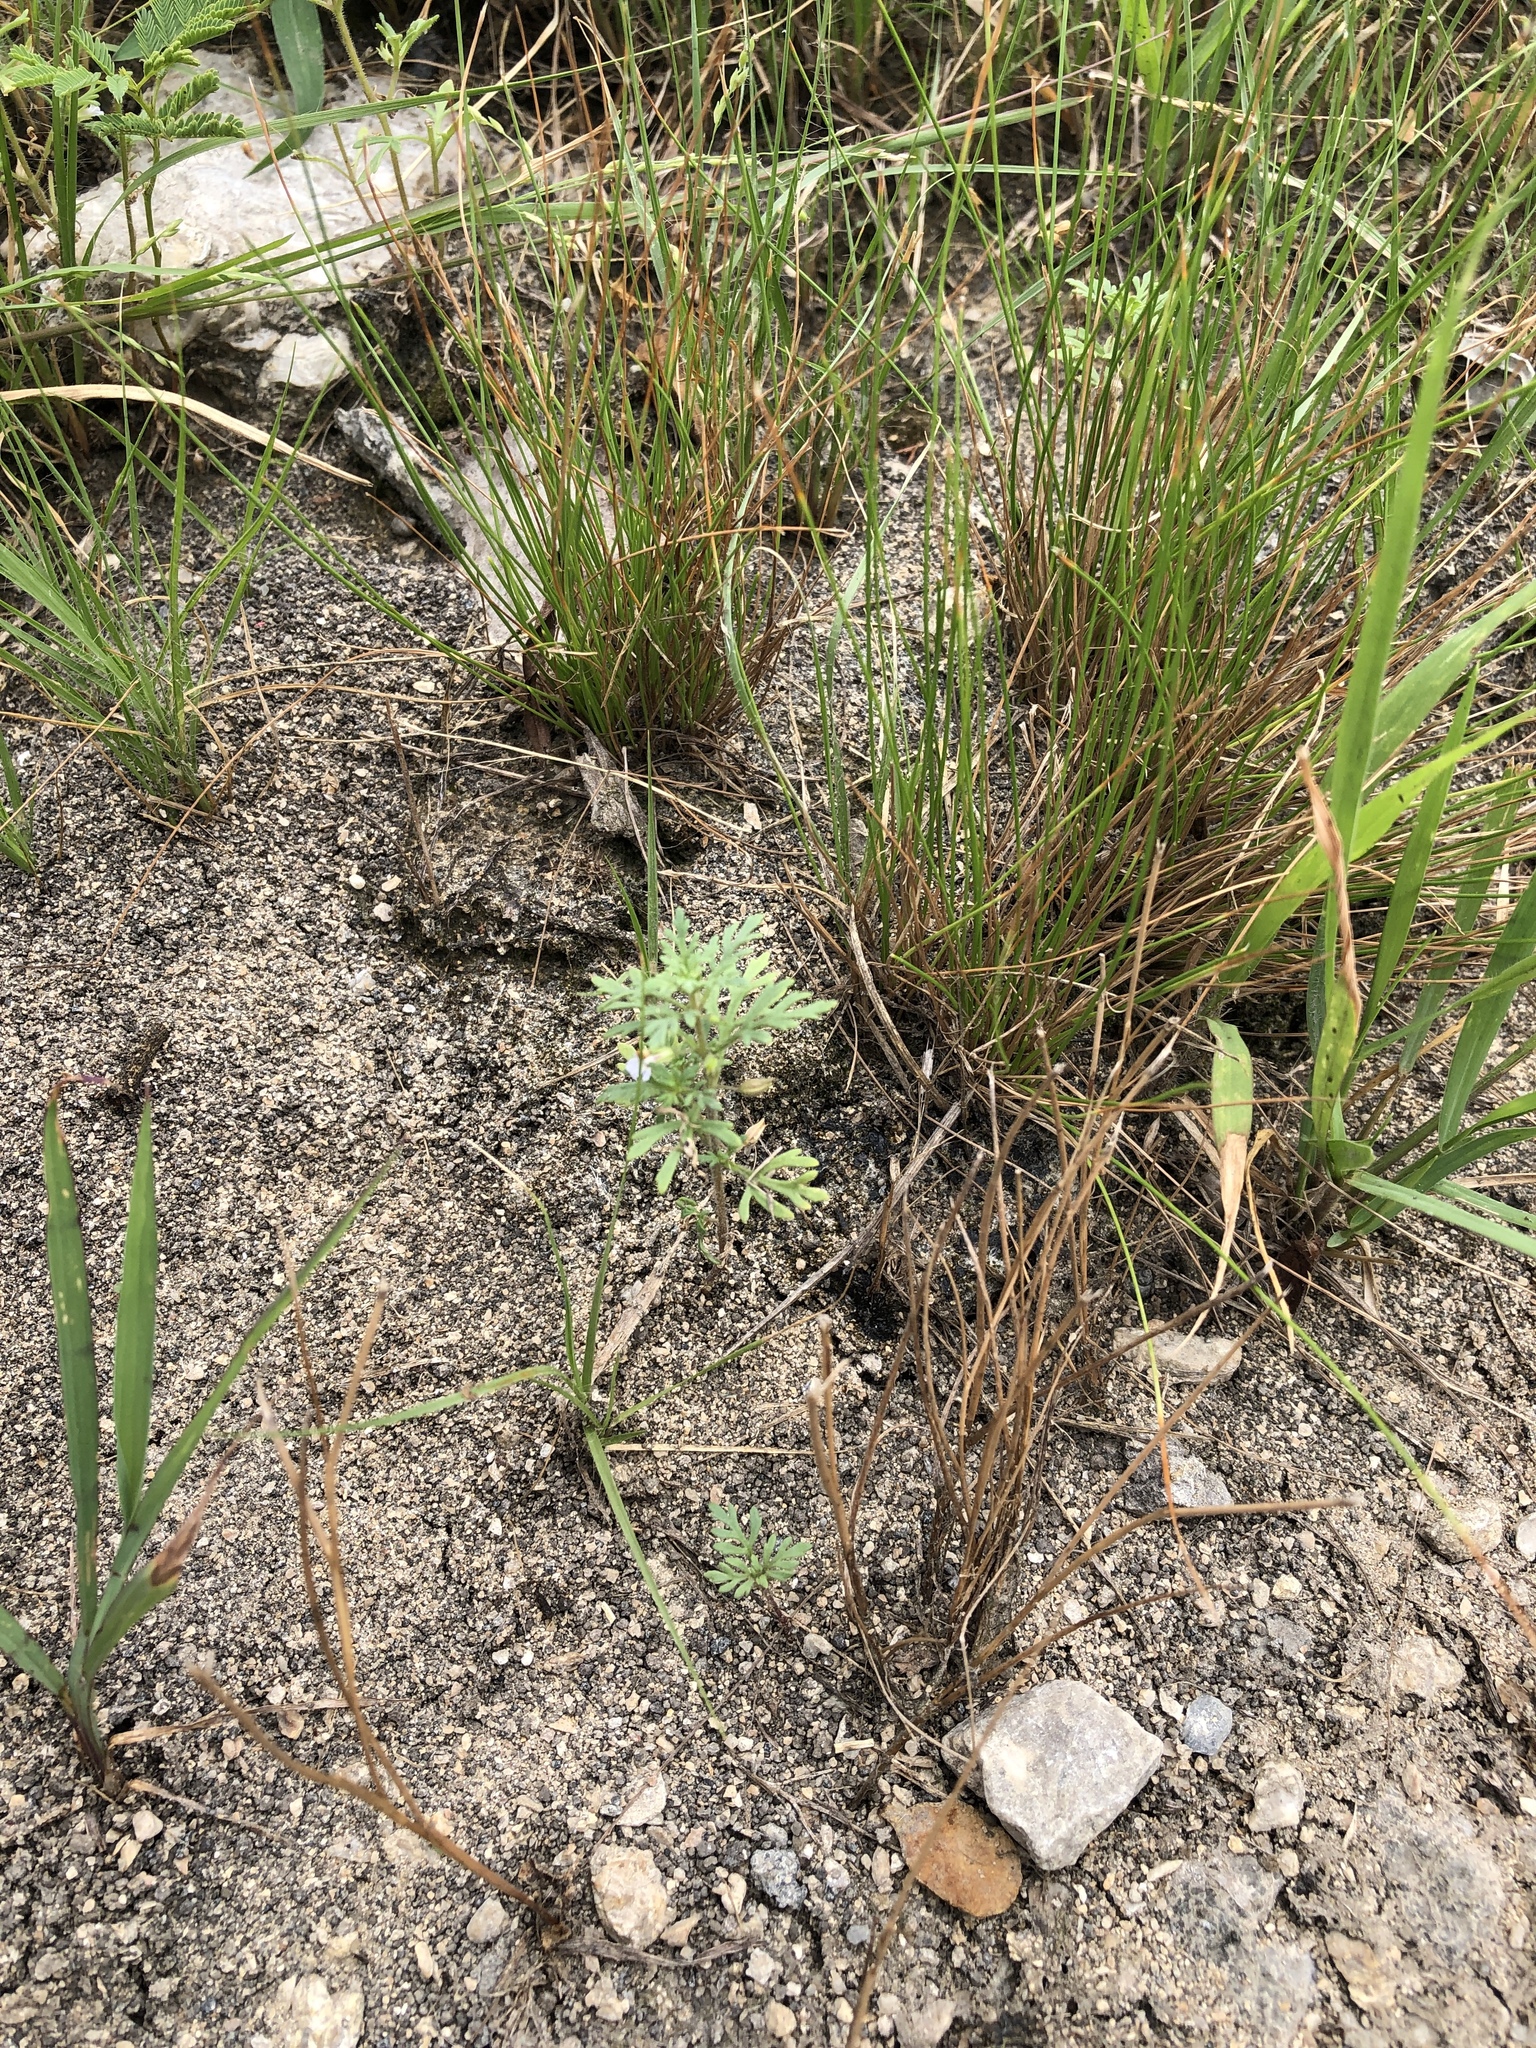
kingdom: Plantae
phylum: Tracheophyta
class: Magnoliopsida
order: Lamiales
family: Plantaginaceae
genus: Leucospora
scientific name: Leucospora multifida
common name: Narrow-leaf paleseed
